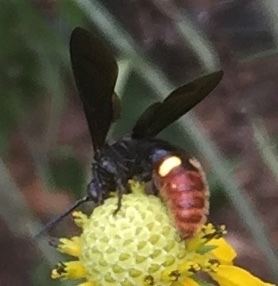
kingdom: Animalia
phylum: Arthropoda
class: Insecta
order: Hymenoptera
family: Scoliidae
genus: Scolia
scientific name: Scolia dubia
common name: Blue-winged scoliid wasp
